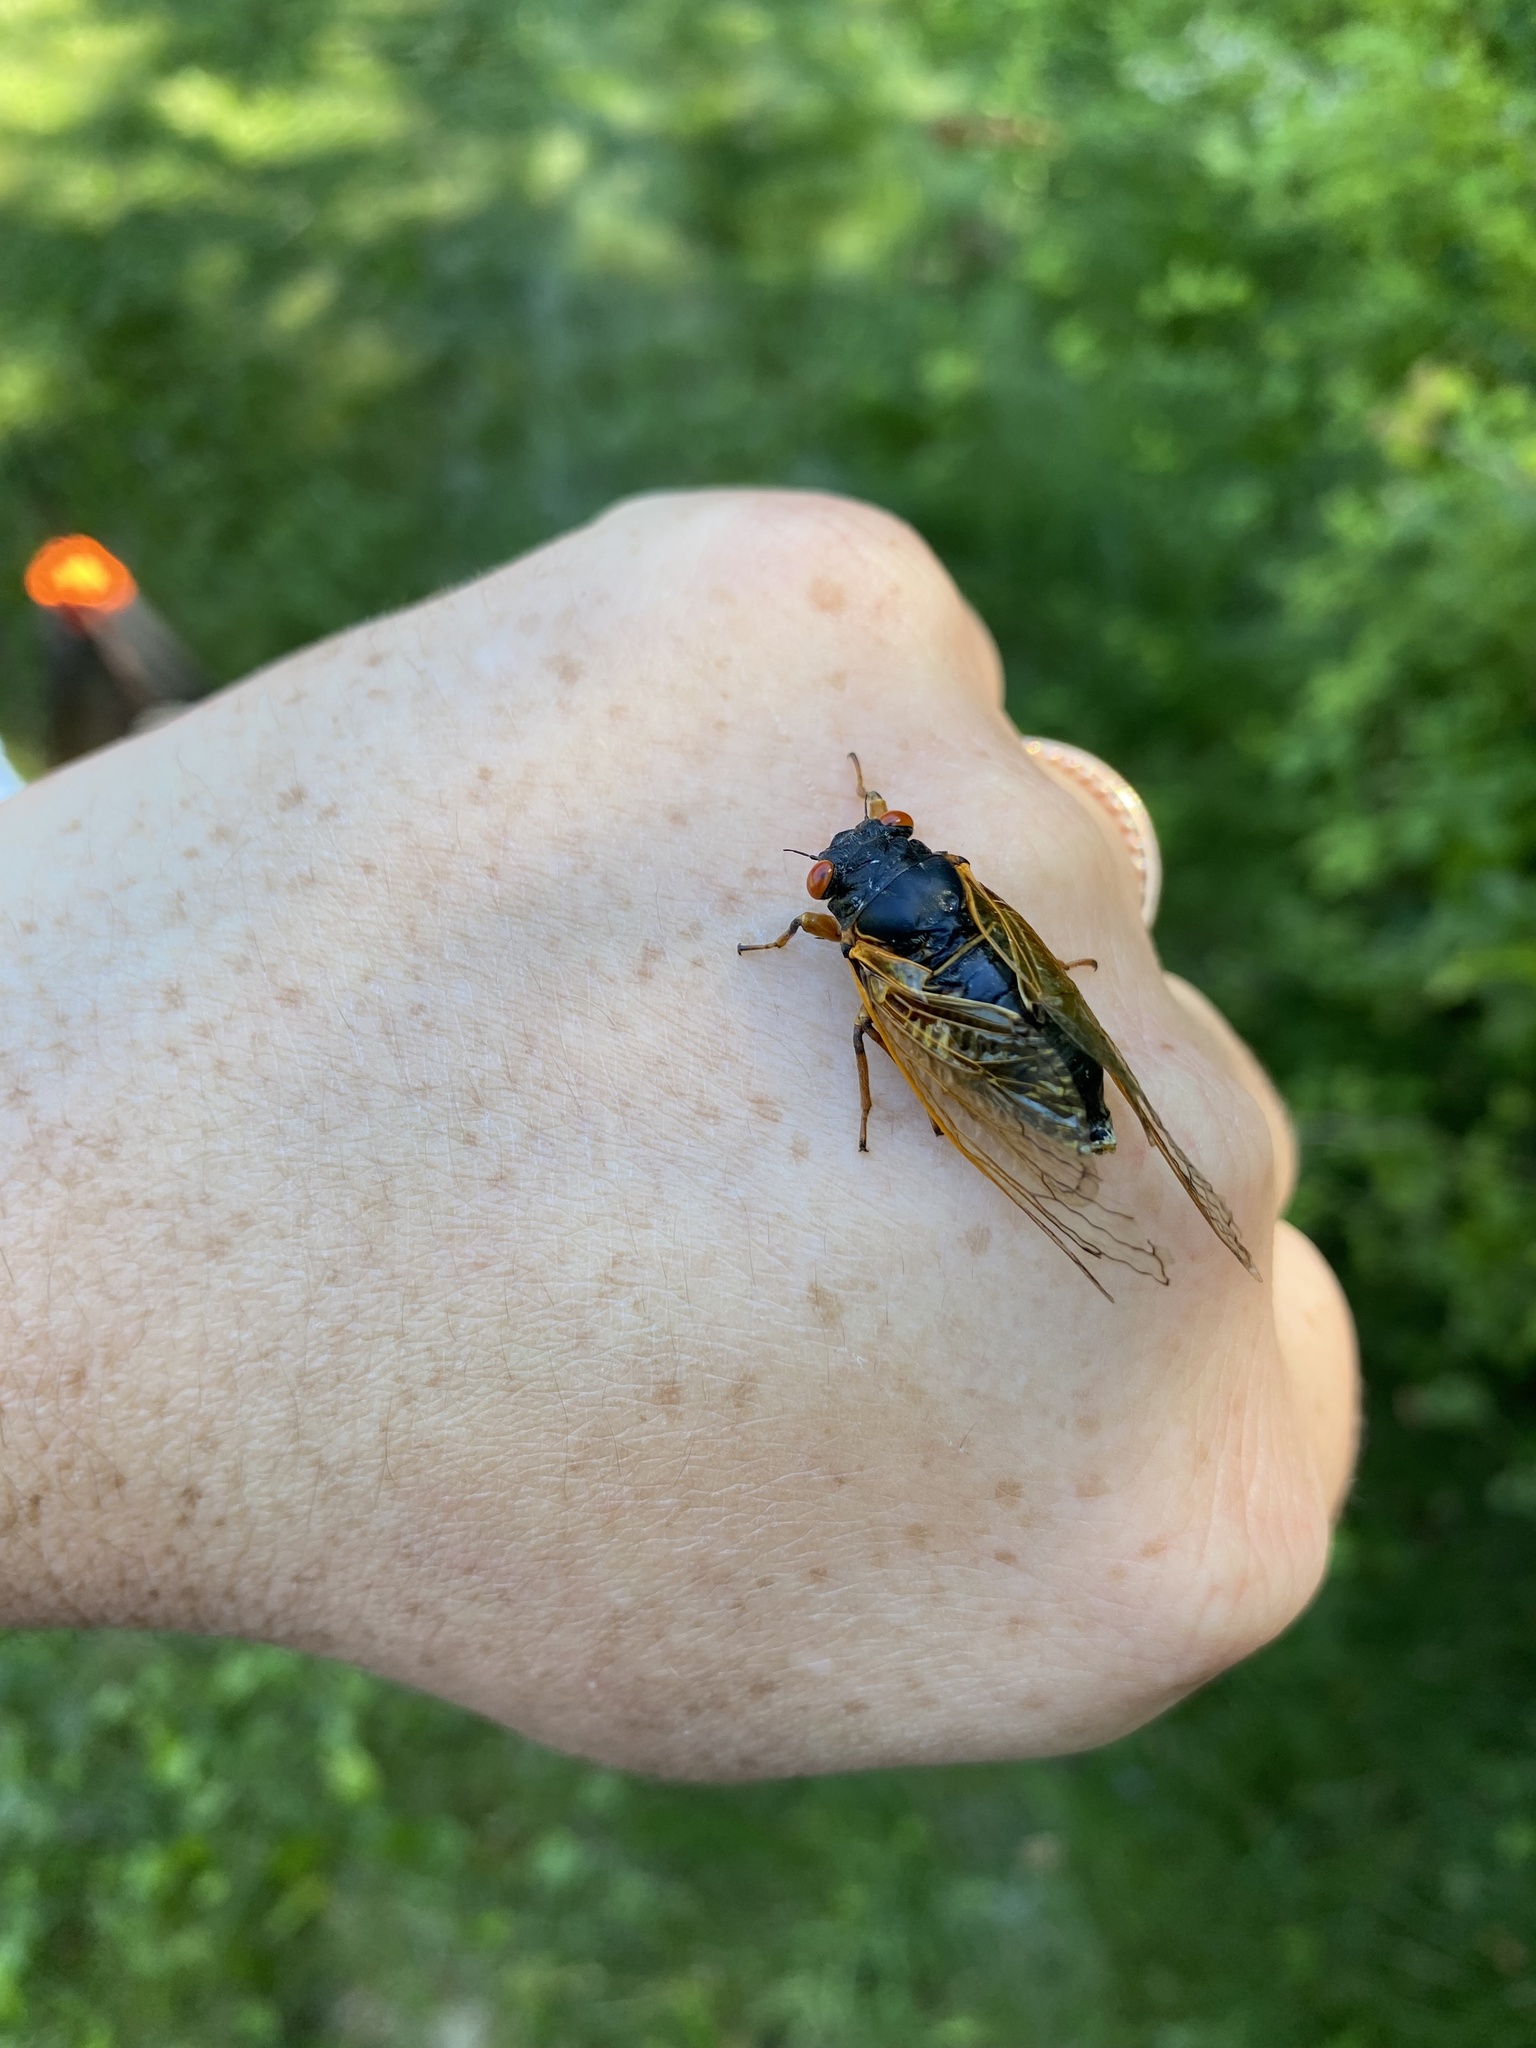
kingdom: Animalia
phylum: Arthropoda
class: Insecta
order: Hemiptera
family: Cicadidae
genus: Magicicada
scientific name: Magicicada
